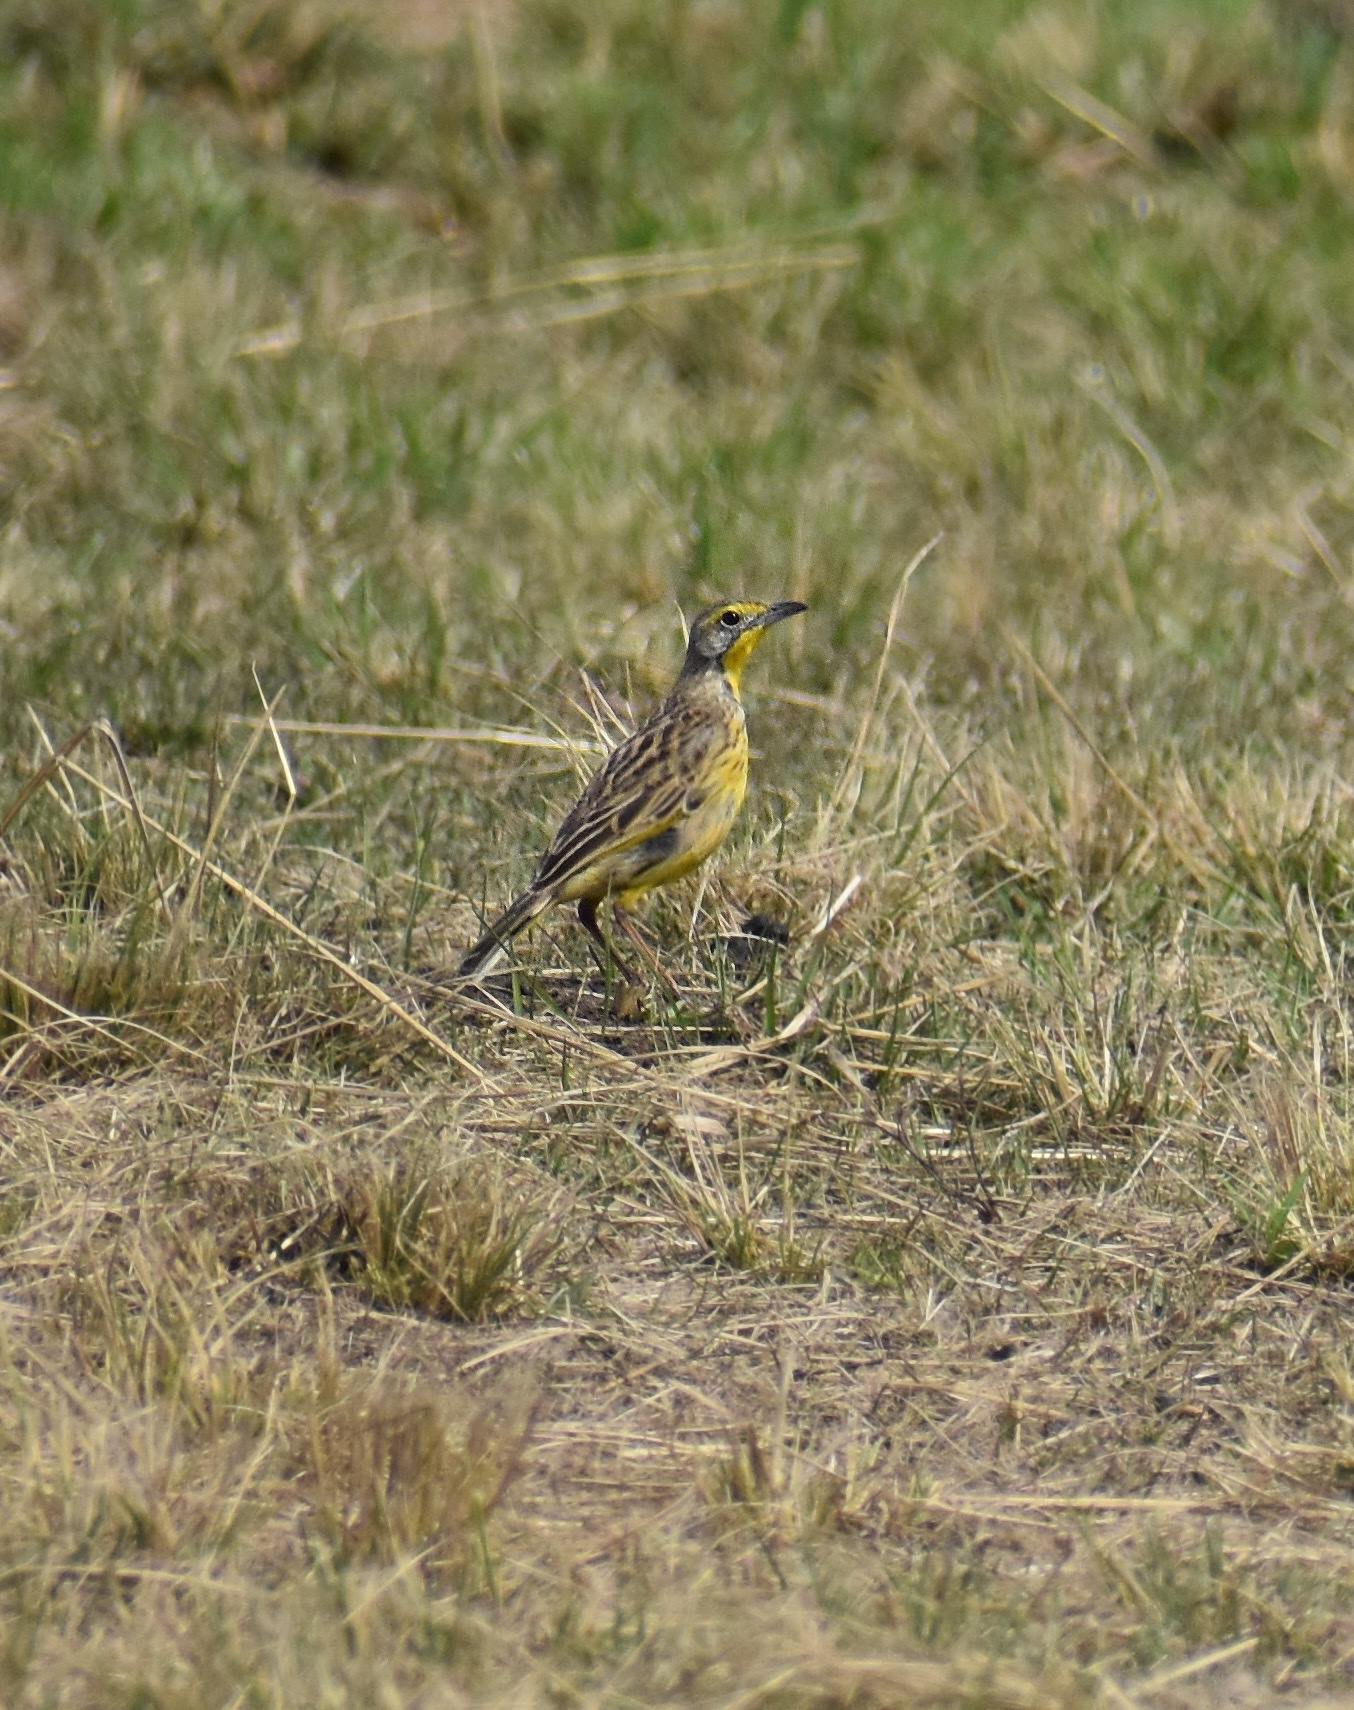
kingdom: Animalia
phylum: Chordata
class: Aves
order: Passeriformes
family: Motacillidae
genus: Macronyx
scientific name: Macronyx croceus
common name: Yellow-throated longclaw
